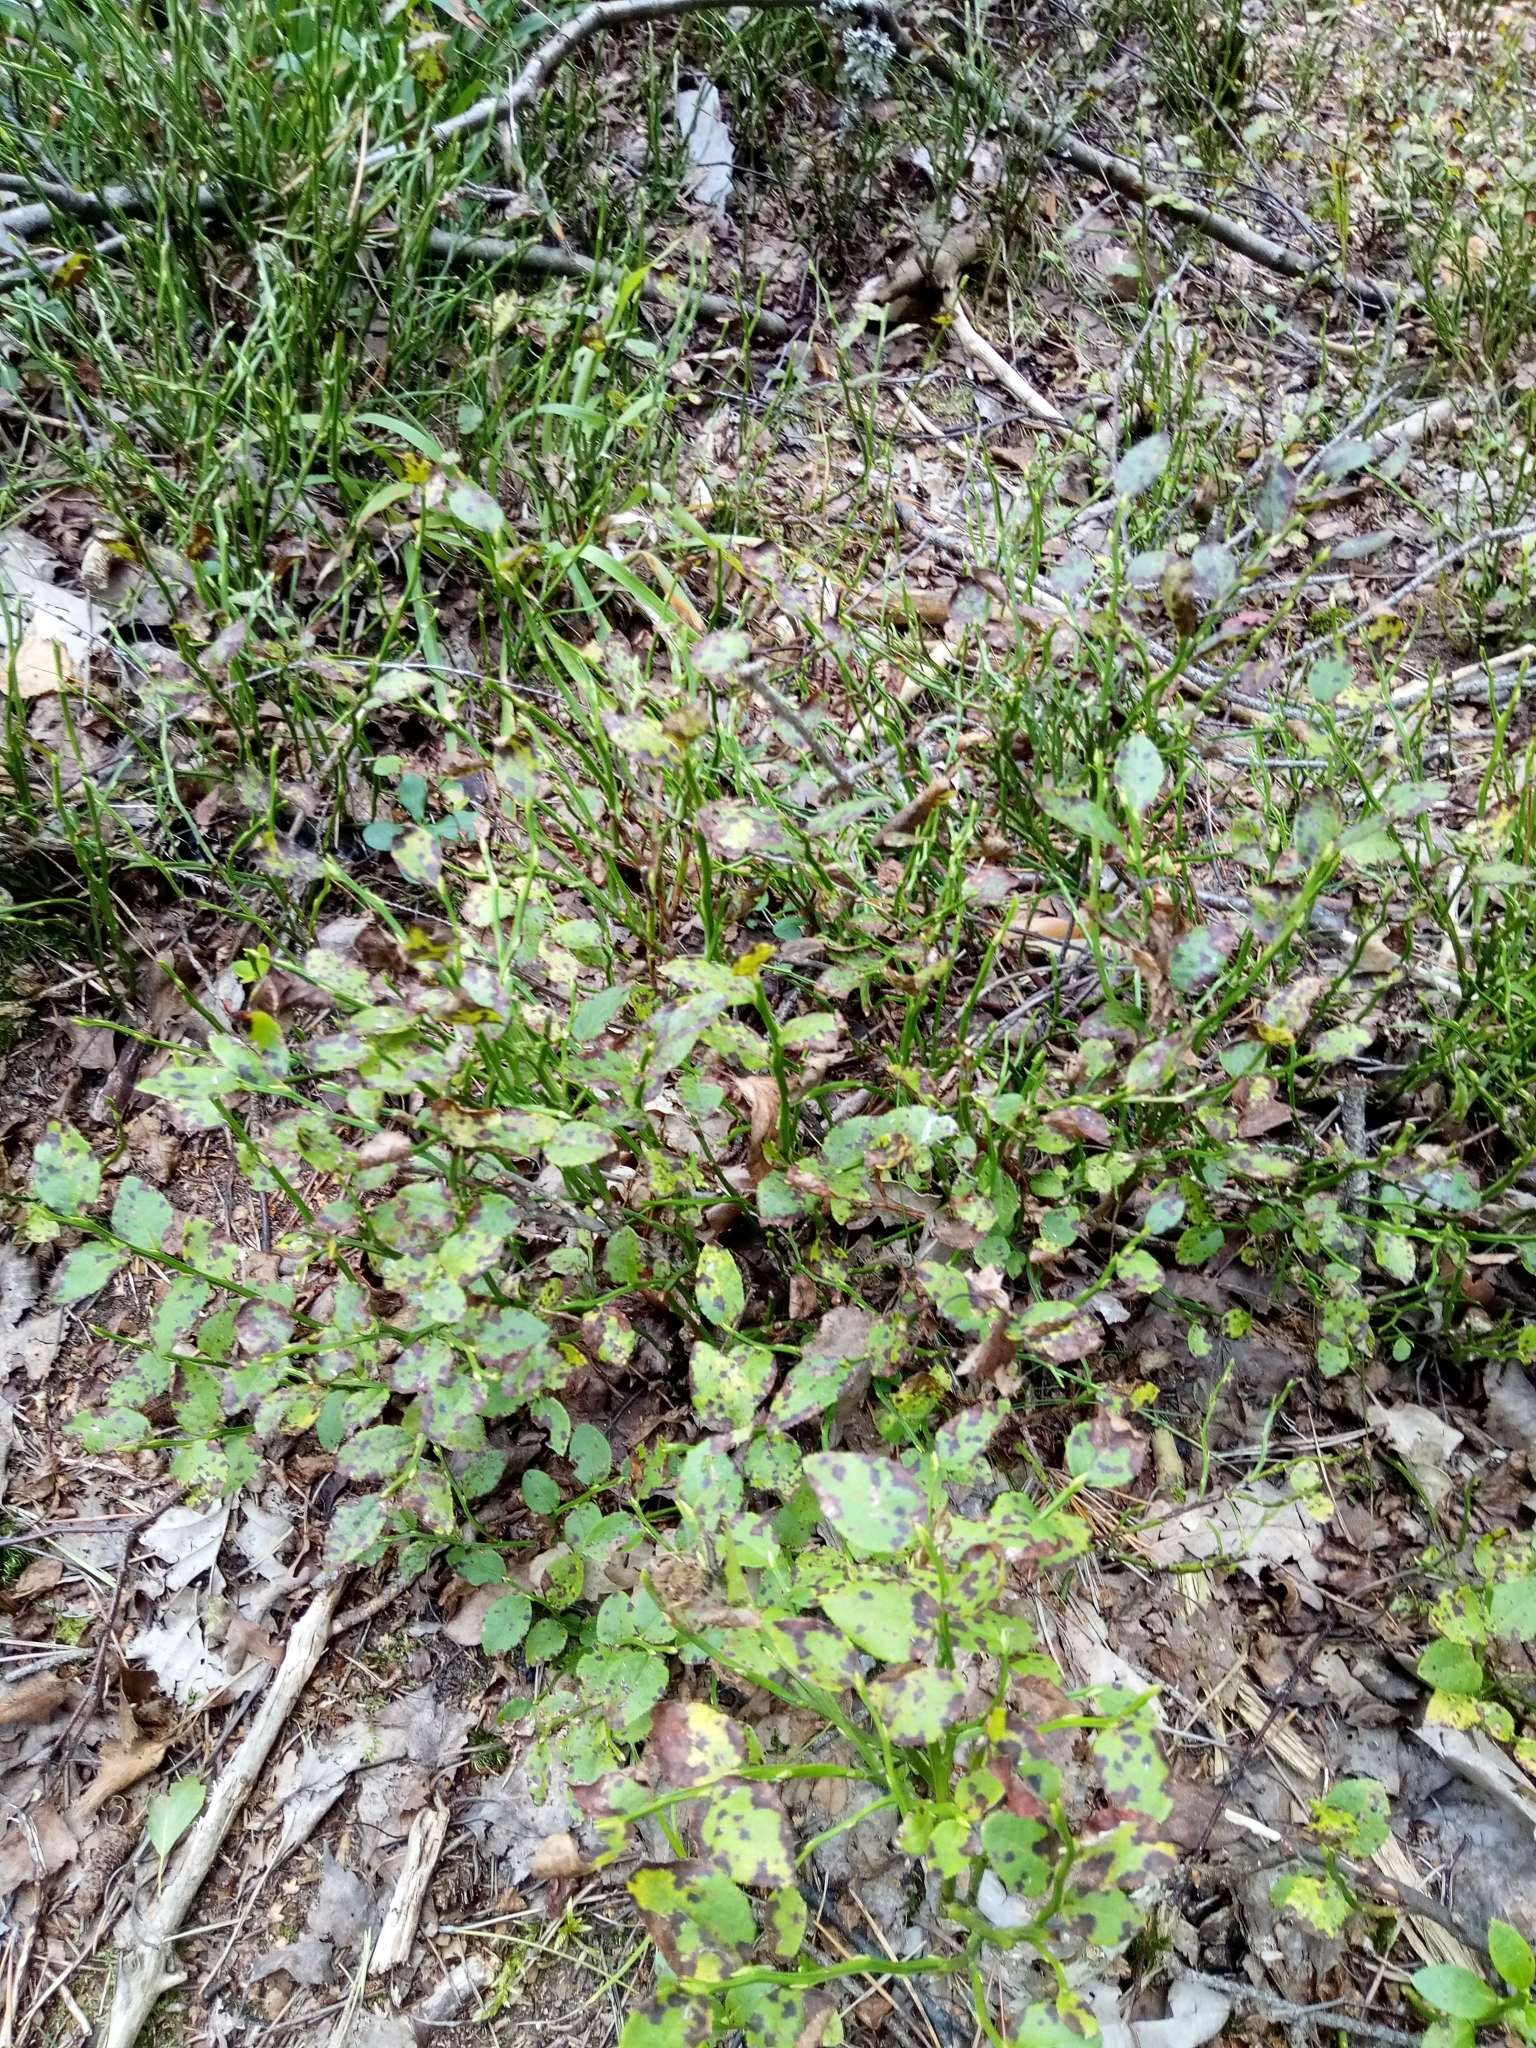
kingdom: Plantae
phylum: Tracheophyta
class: Magnoliopsida
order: Ericales
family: Ericaceae
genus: Vaccinium
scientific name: Vaccinium myrtillus
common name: Bilberry
